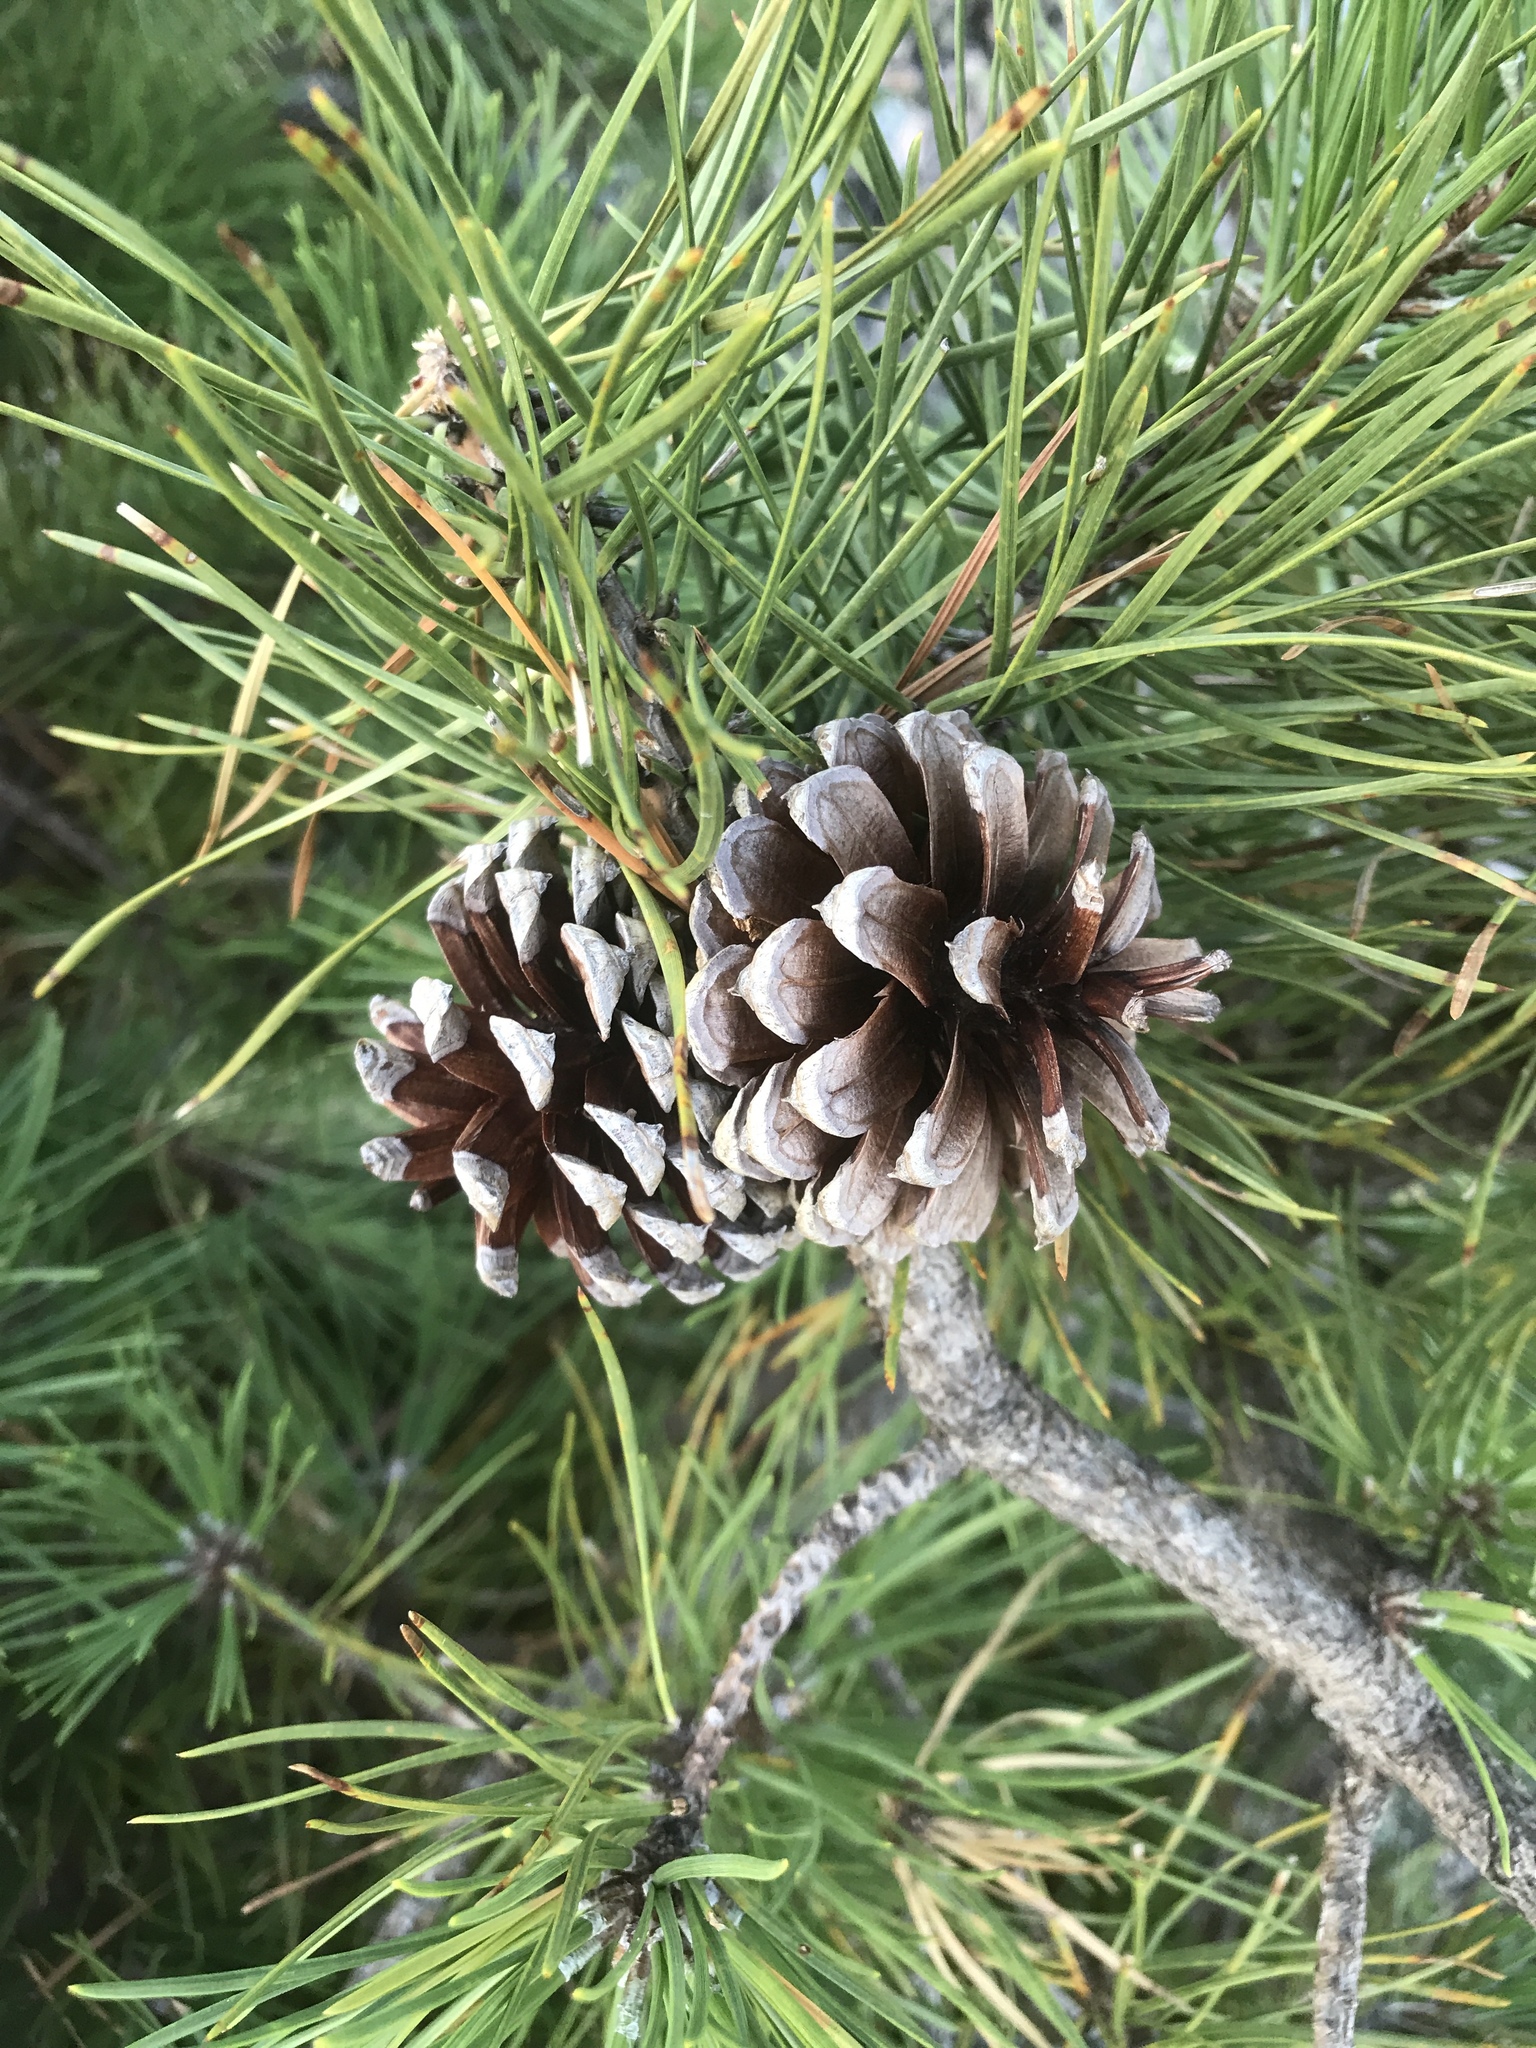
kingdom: Plantae
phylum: Tracheophyta
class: Pinopsida
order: Pinales
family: Pinaceae
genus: Pinus
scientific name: Pinus rigida
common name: Pitch pine
